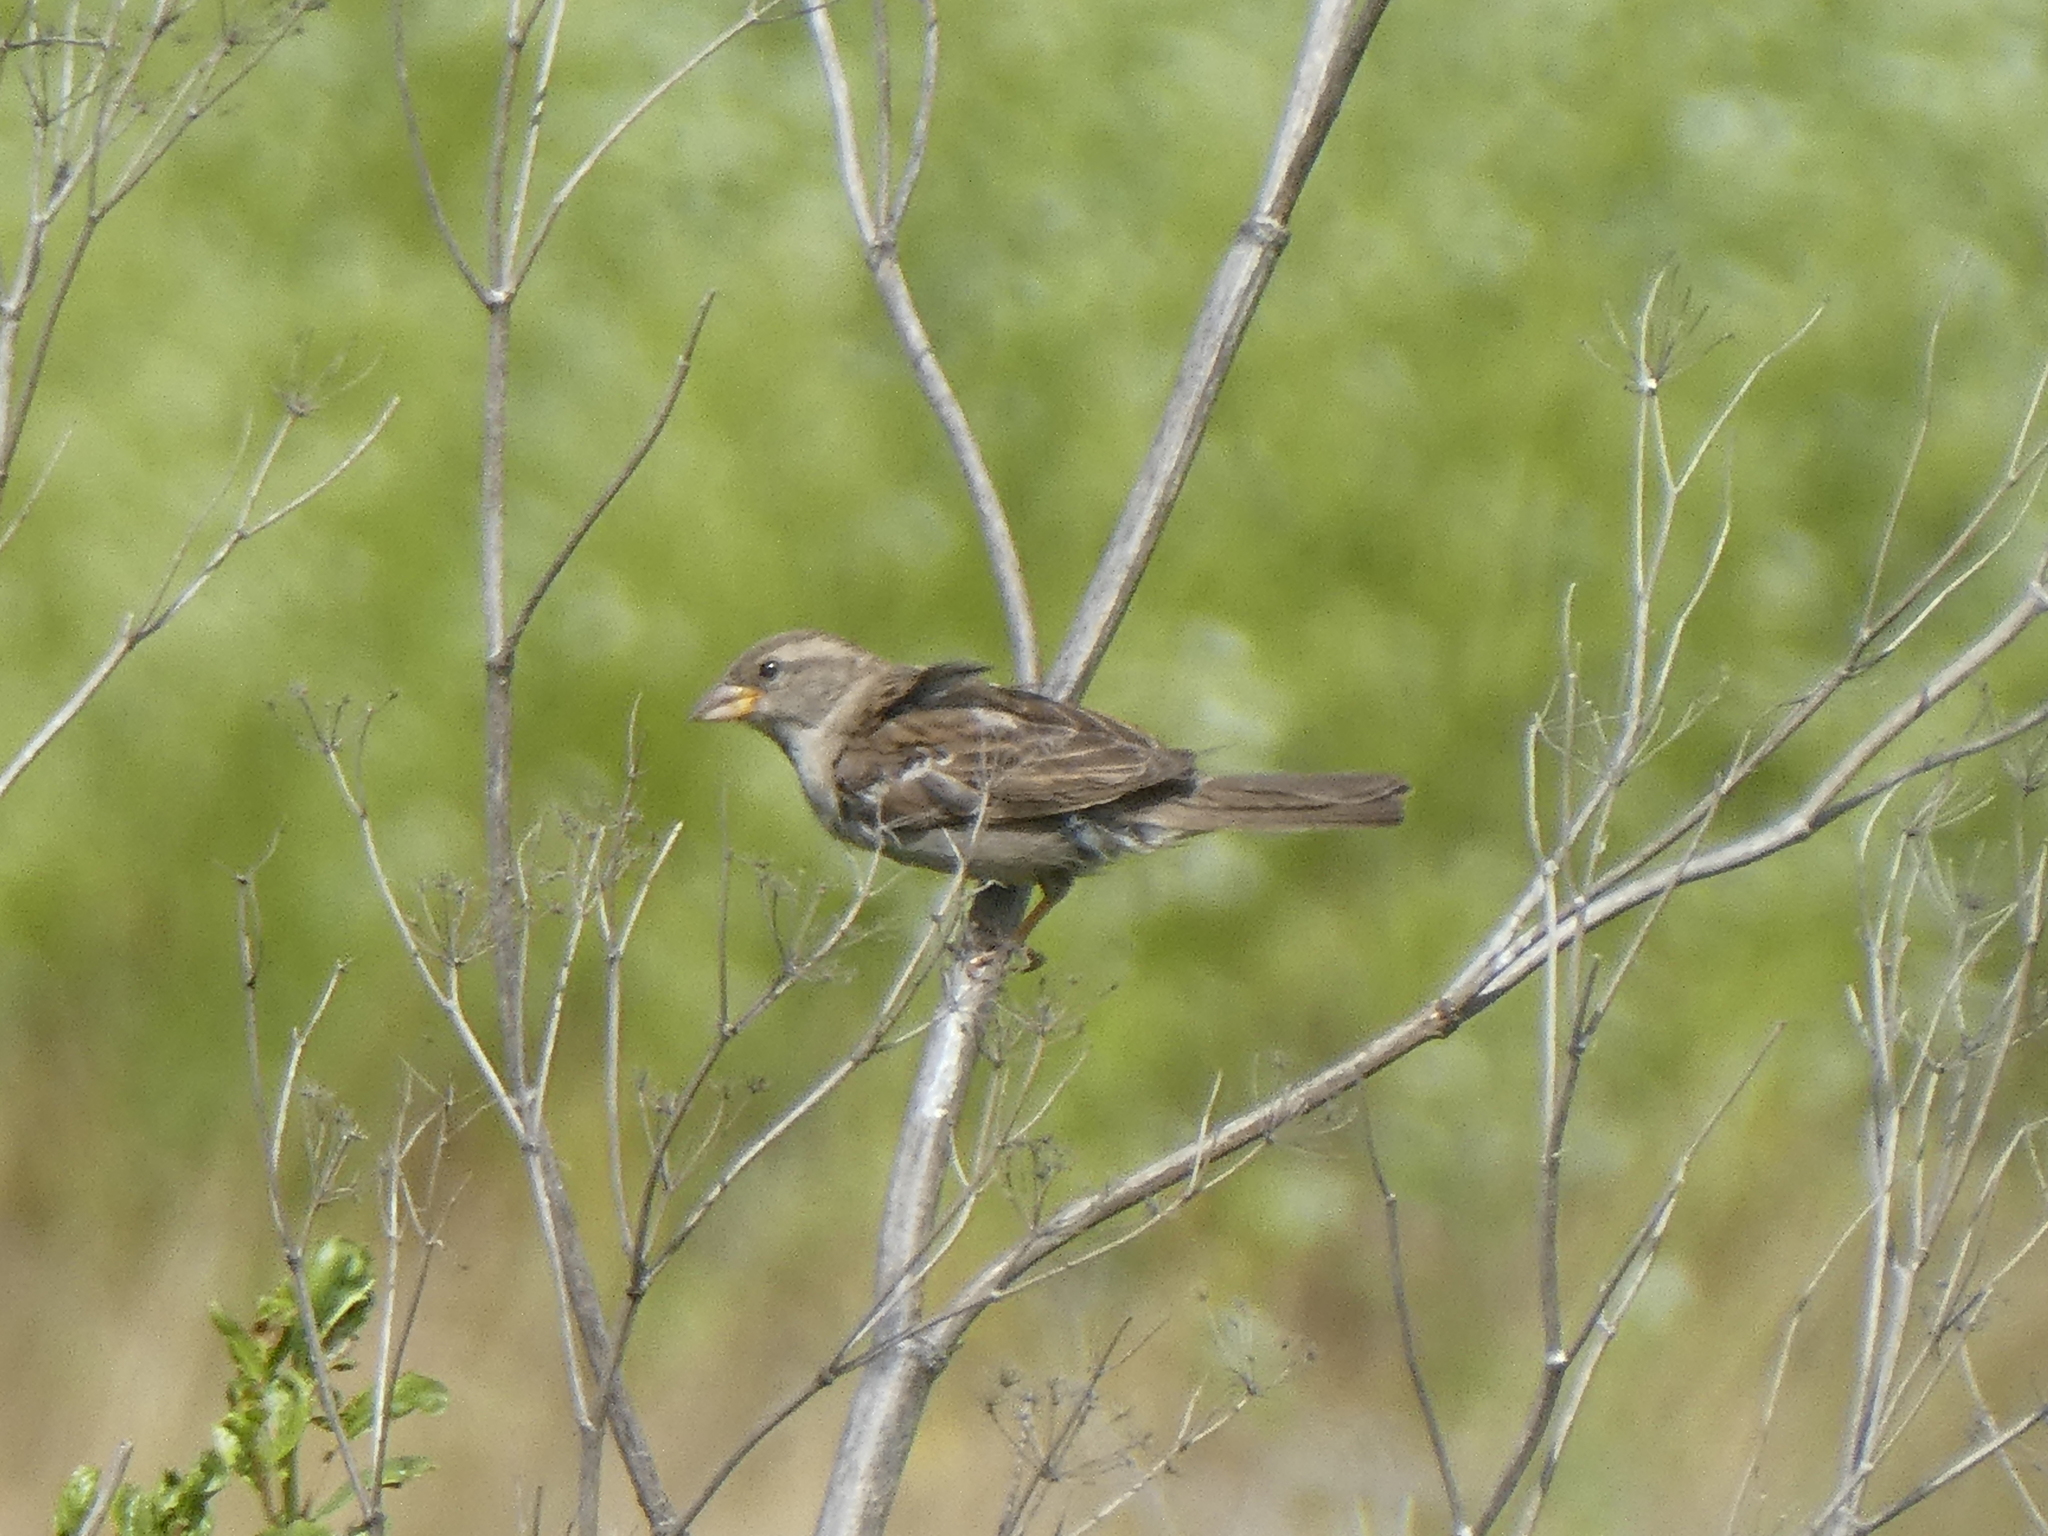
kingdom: Animalia
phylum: Chordata
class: Aves
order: Passeriformes
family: Passeridae
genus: Passer
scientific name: Passer domesticus
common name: House sparrow
